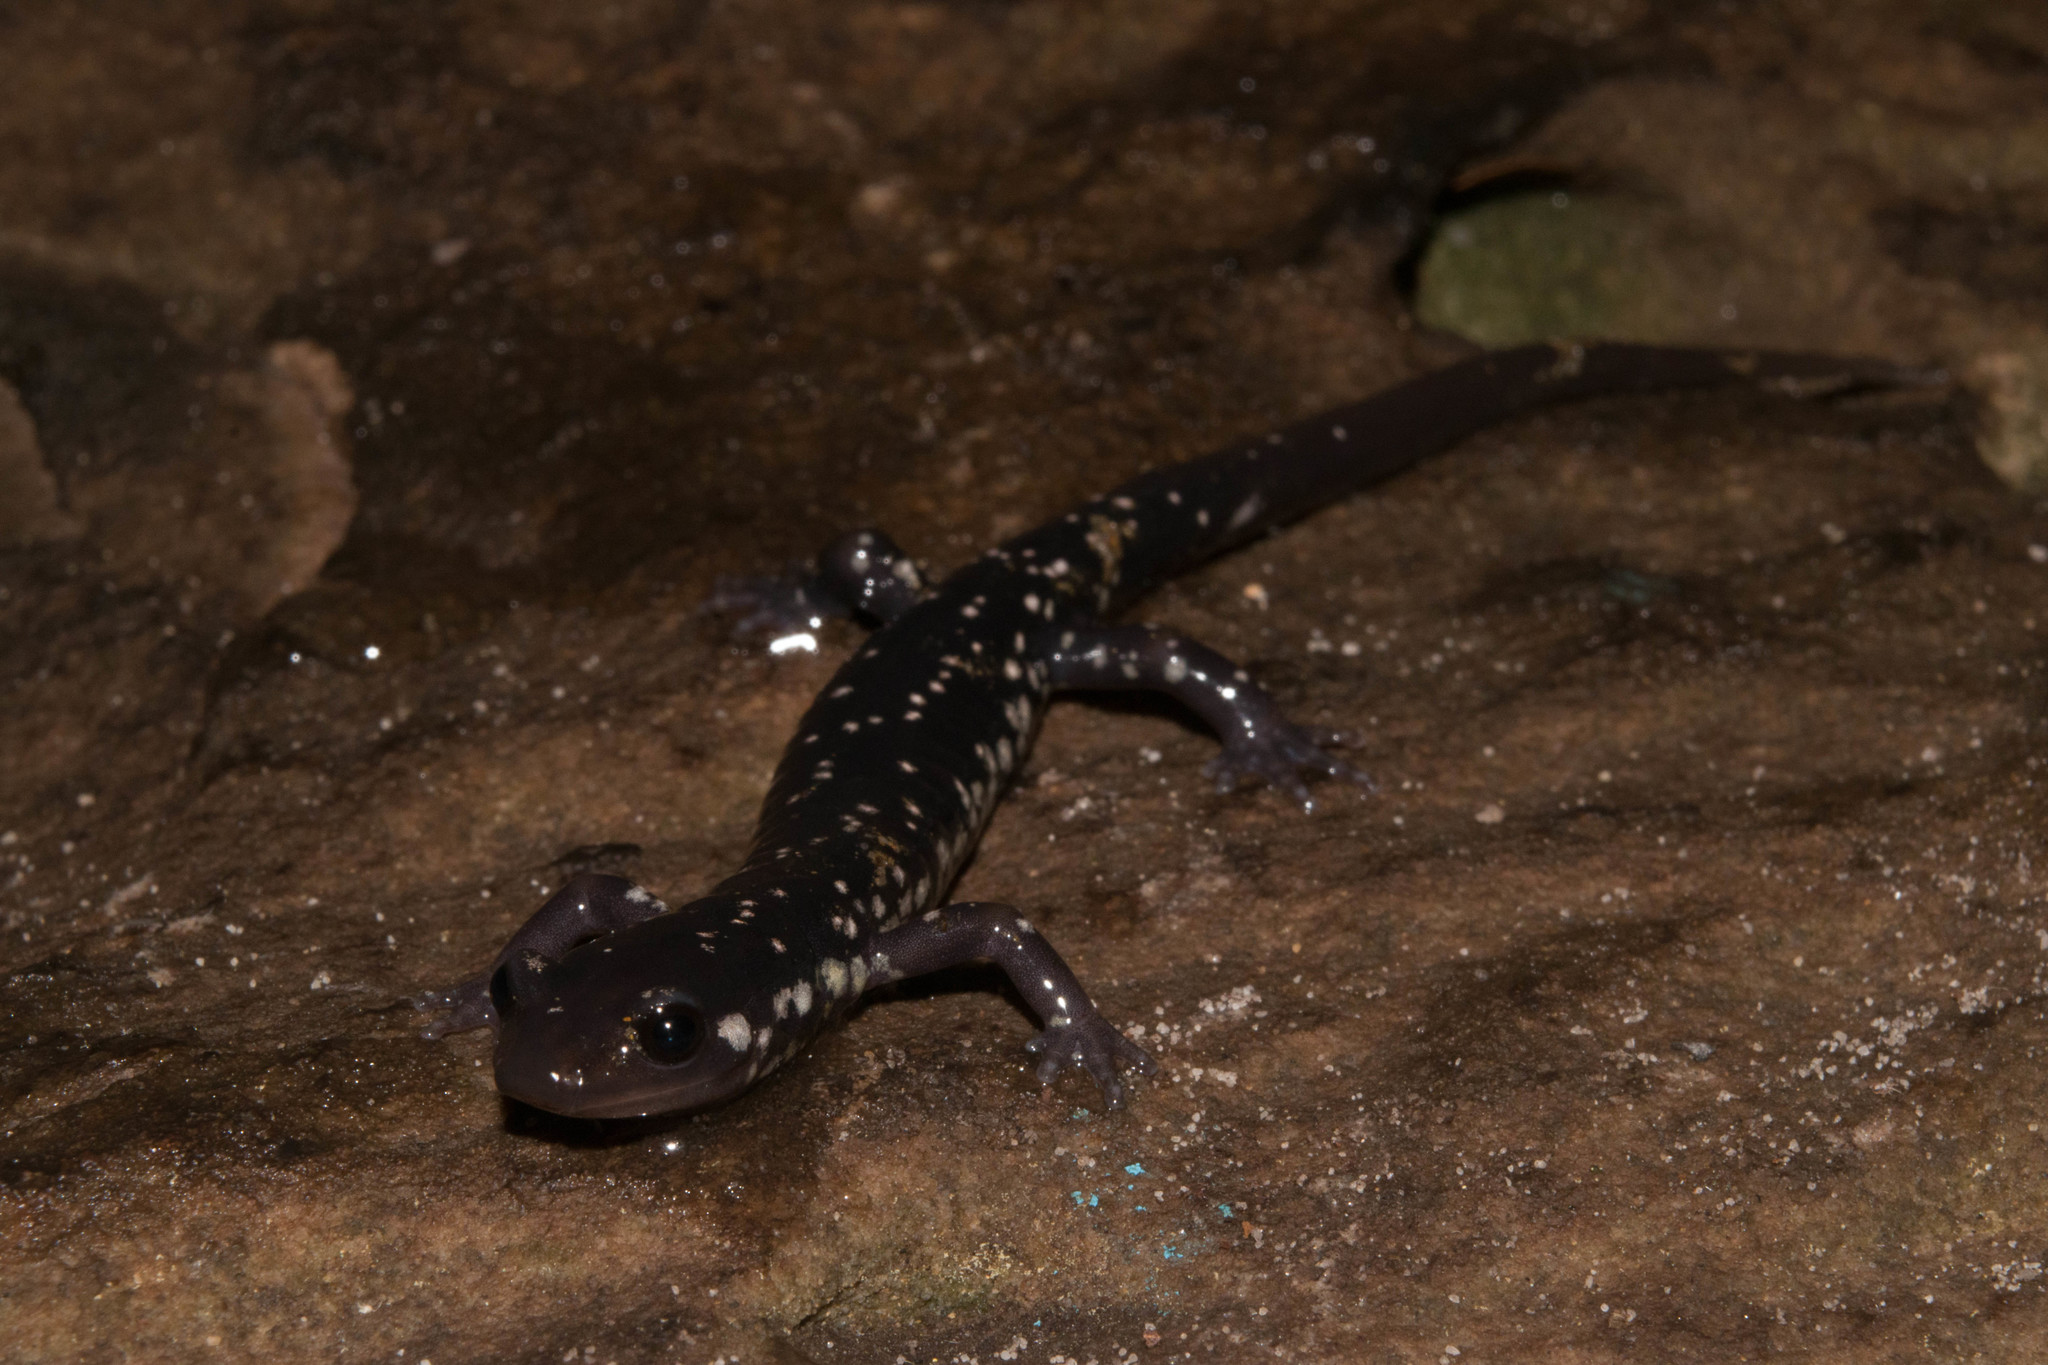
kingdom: Animalia
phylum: Chordata
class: Amphibia
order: Caudata
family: Plethodontidae
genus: Plethodon
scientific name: Plethodon kentucki
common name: Cumberland plateau salamander
